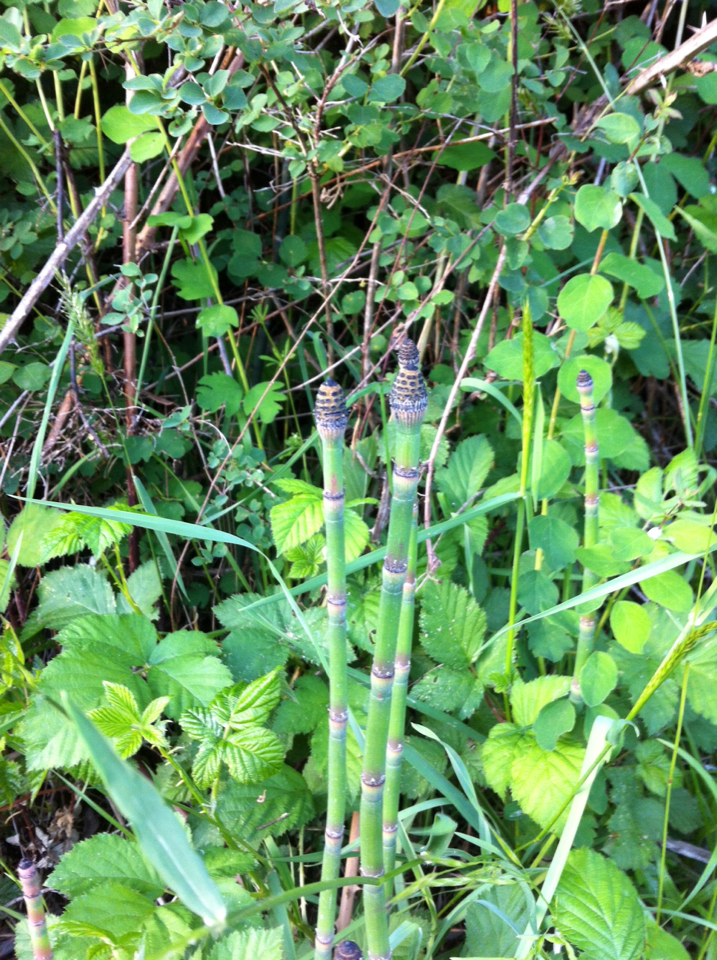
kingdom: Plantae
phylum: Tracheophyta
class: Polypodiopsida
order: Equisetales
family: Equisetaceae
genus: Equisetum
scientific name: Equisetum praealtum
